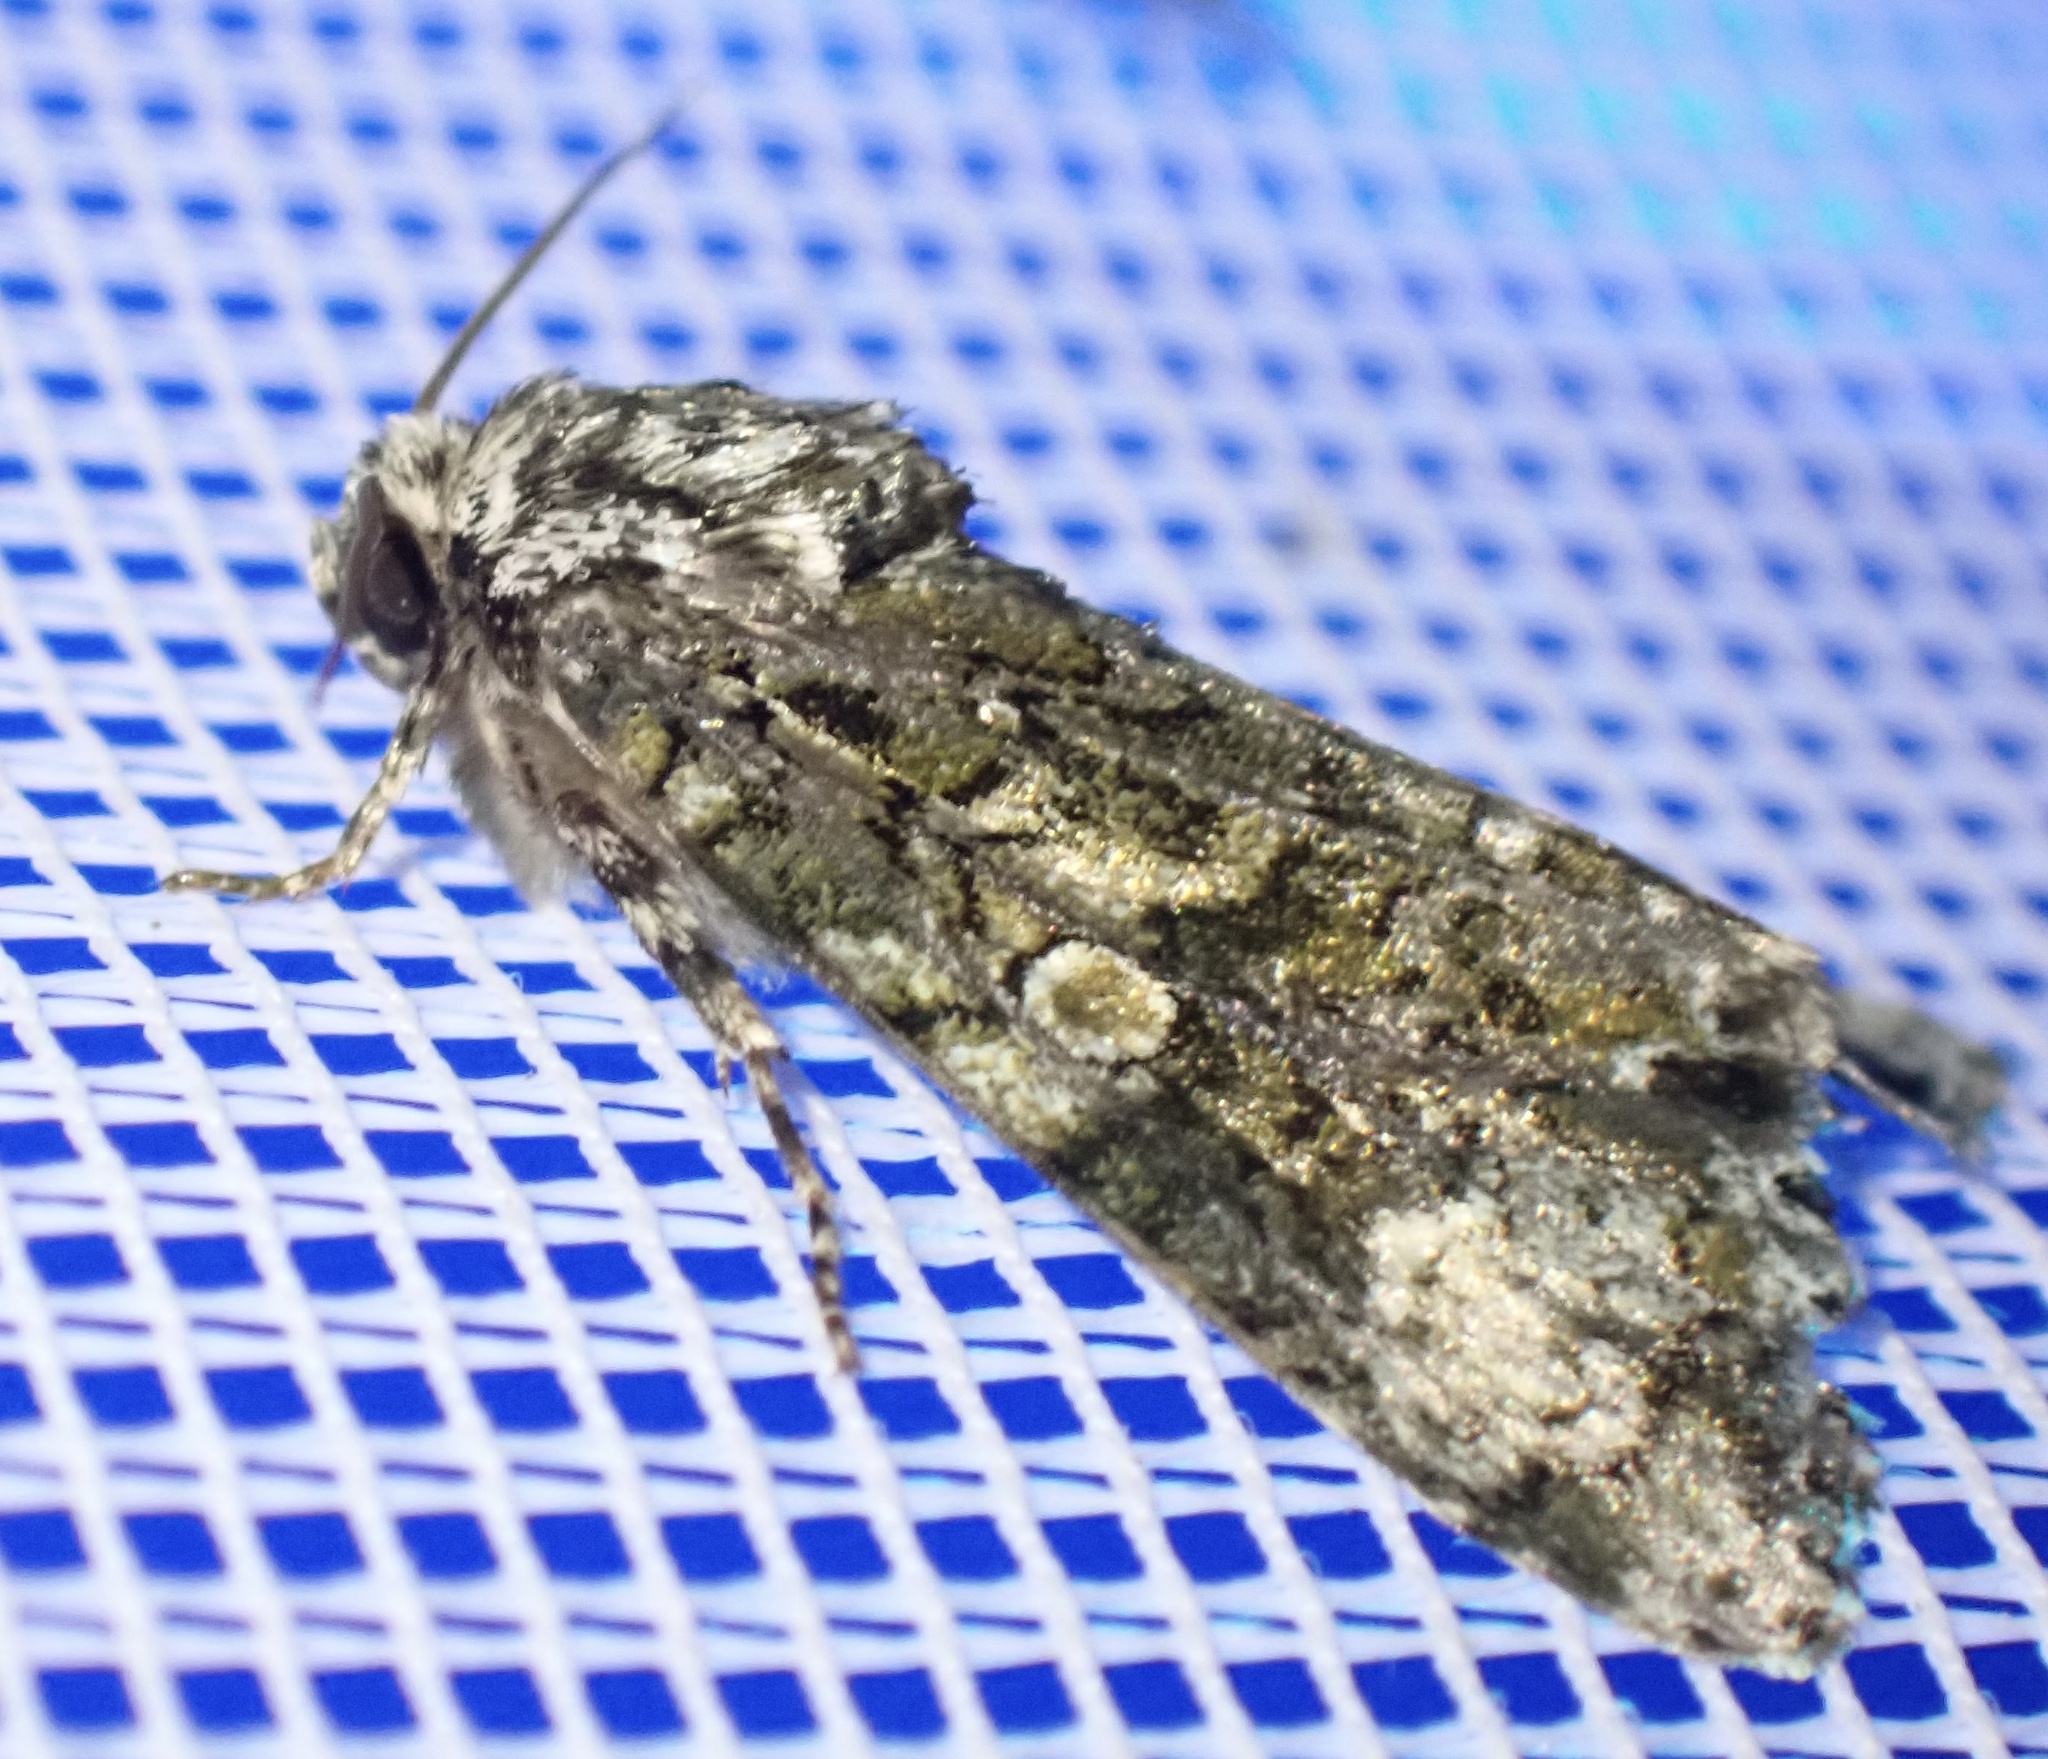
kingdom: Animalia
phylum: Arthropoda
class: Insecta
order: Lepidoptera
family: Noctuidae
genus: Craniophora
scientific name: Craniophora ligustri
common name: Coronet
